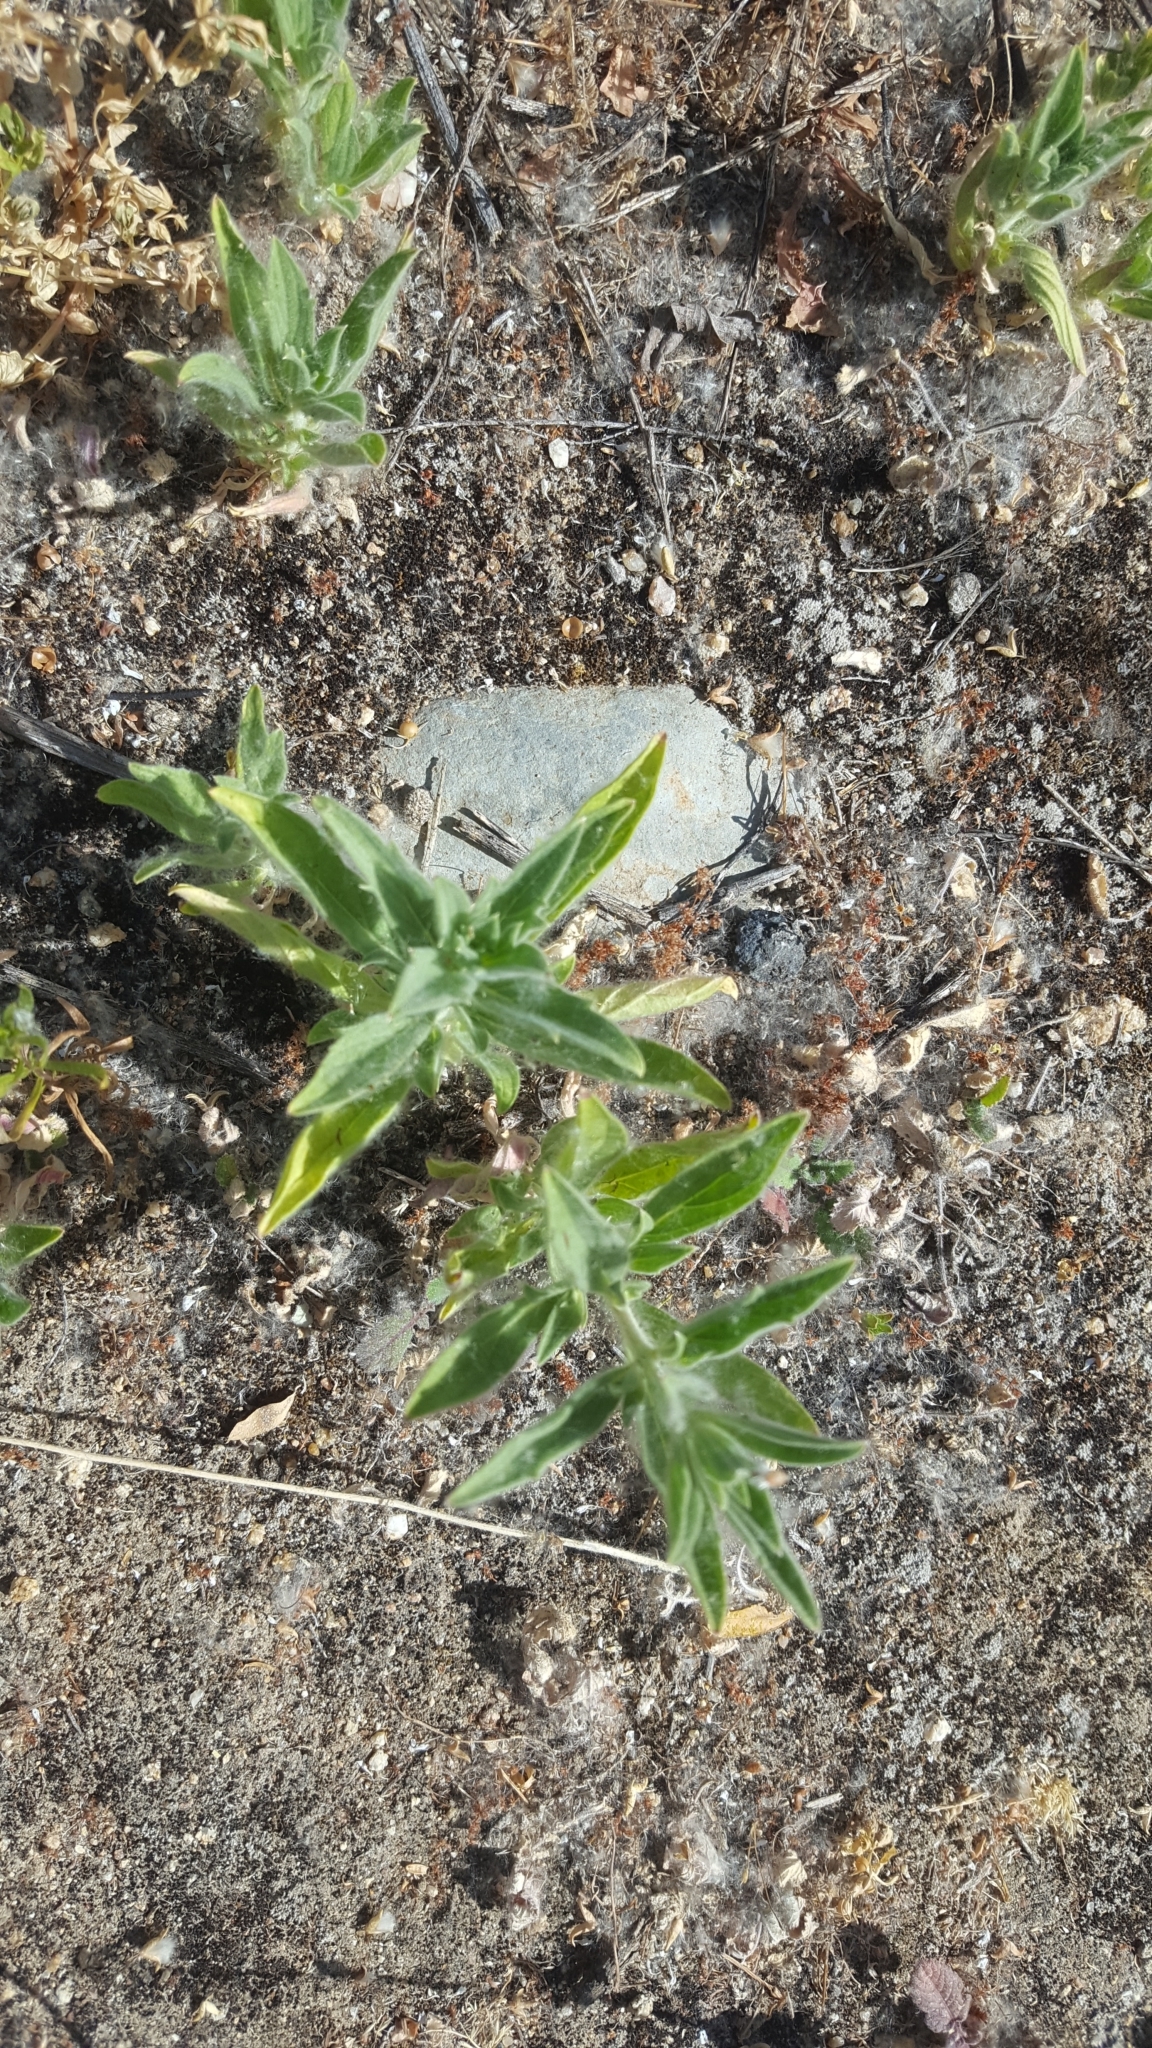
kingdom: Plantae
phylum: Tracheophyta
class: Magnoliopsida
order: Lamiales
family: Lamiaceae
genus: Trichostema
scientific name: Trichostema lanceolatum
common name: Vinegar-weed
